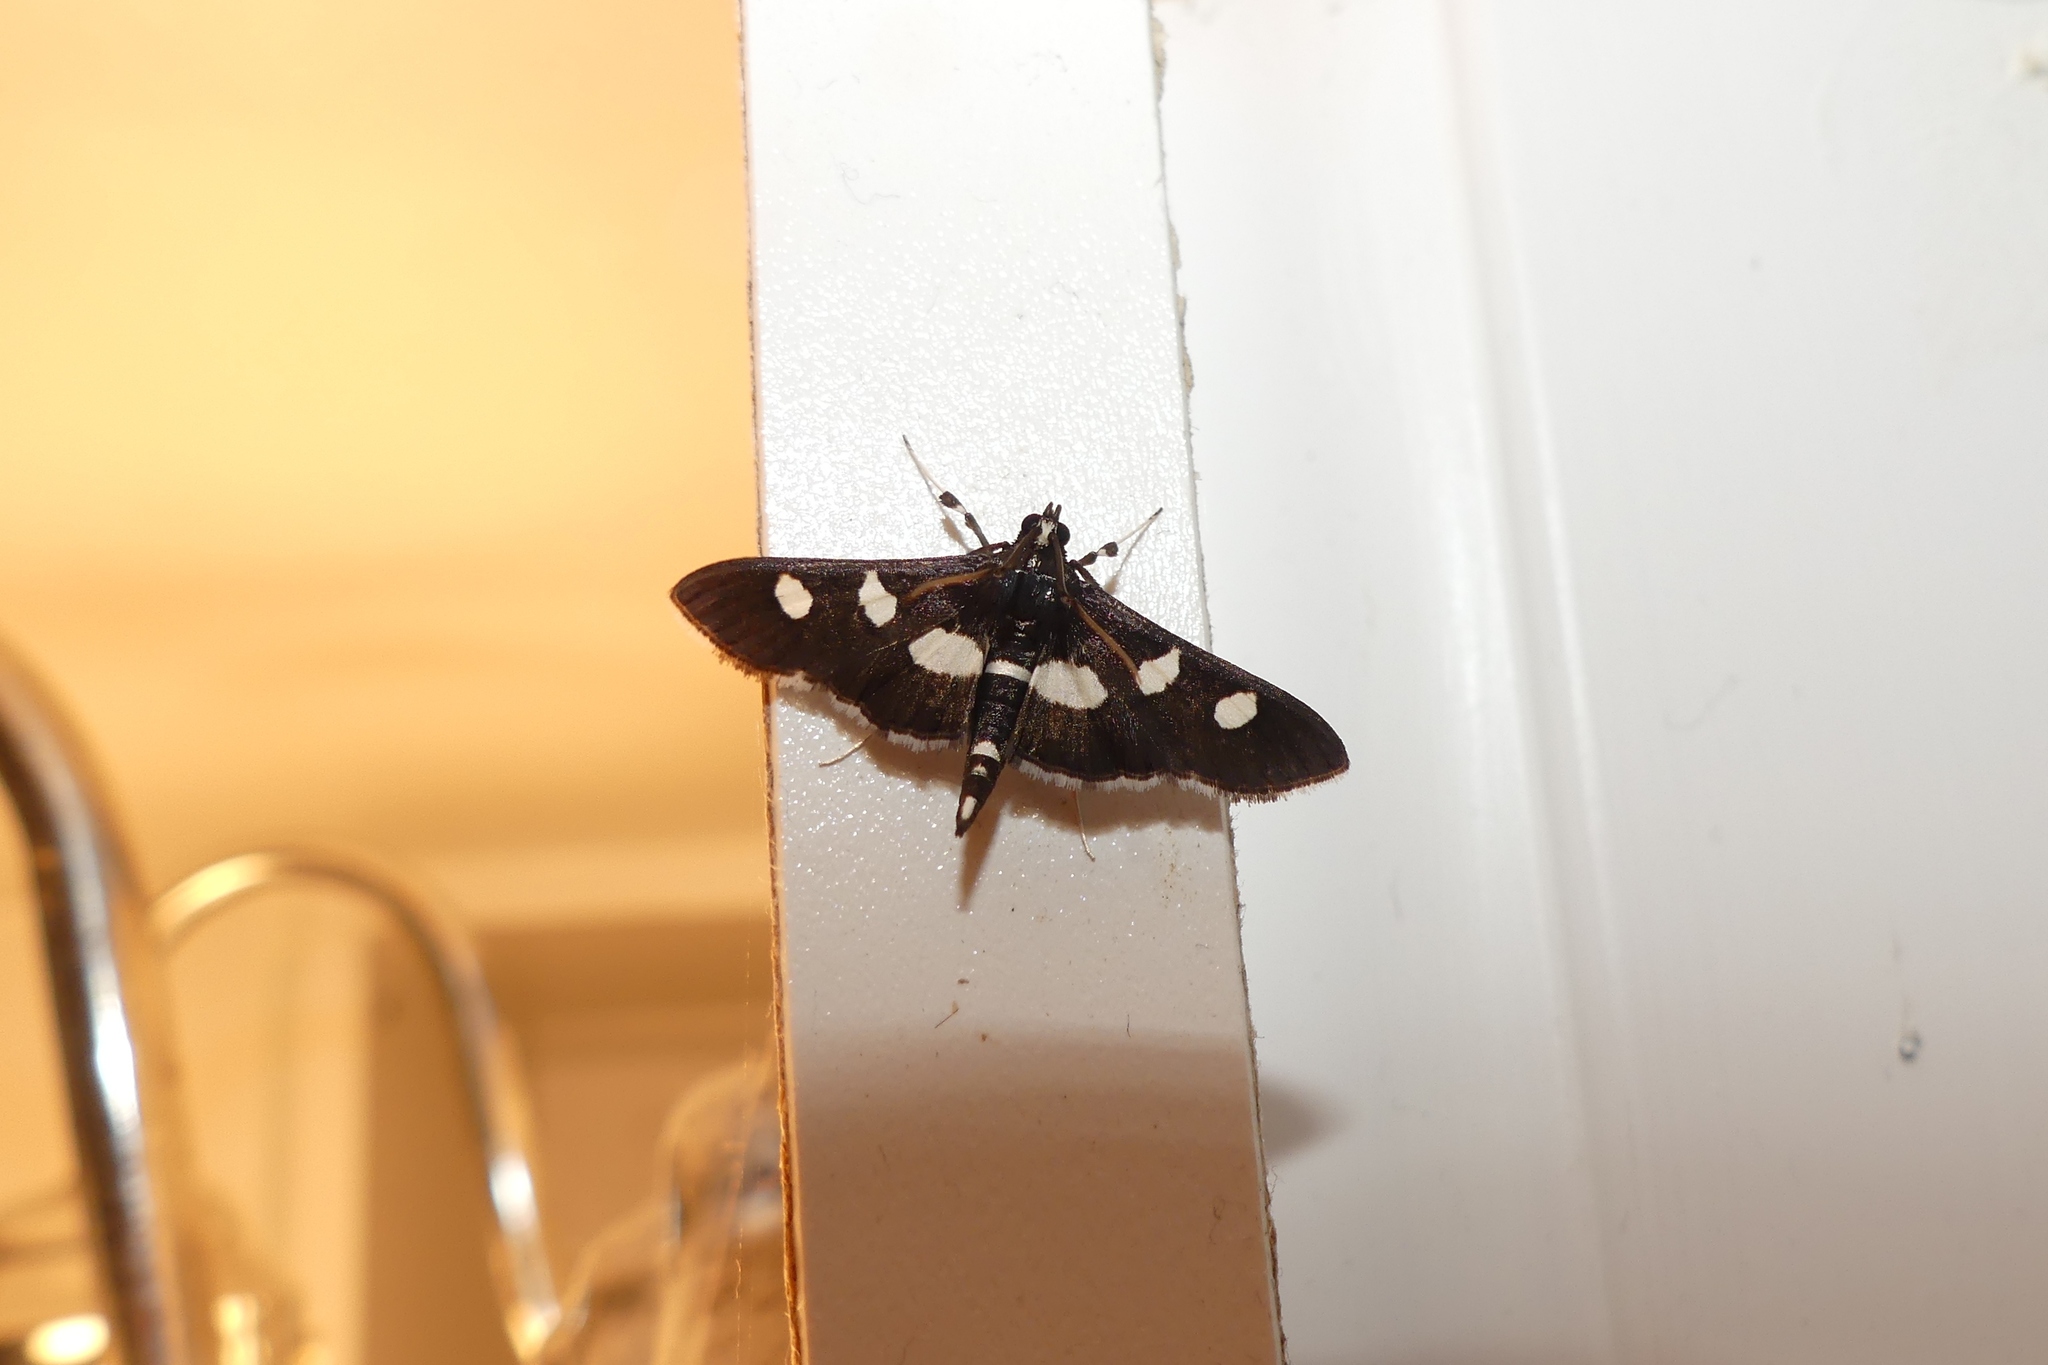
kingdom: Animalia
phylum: Arthropoda
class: Insecta
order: Lepidoptera
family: Crambidae
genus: Desmia
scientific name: Desmia
